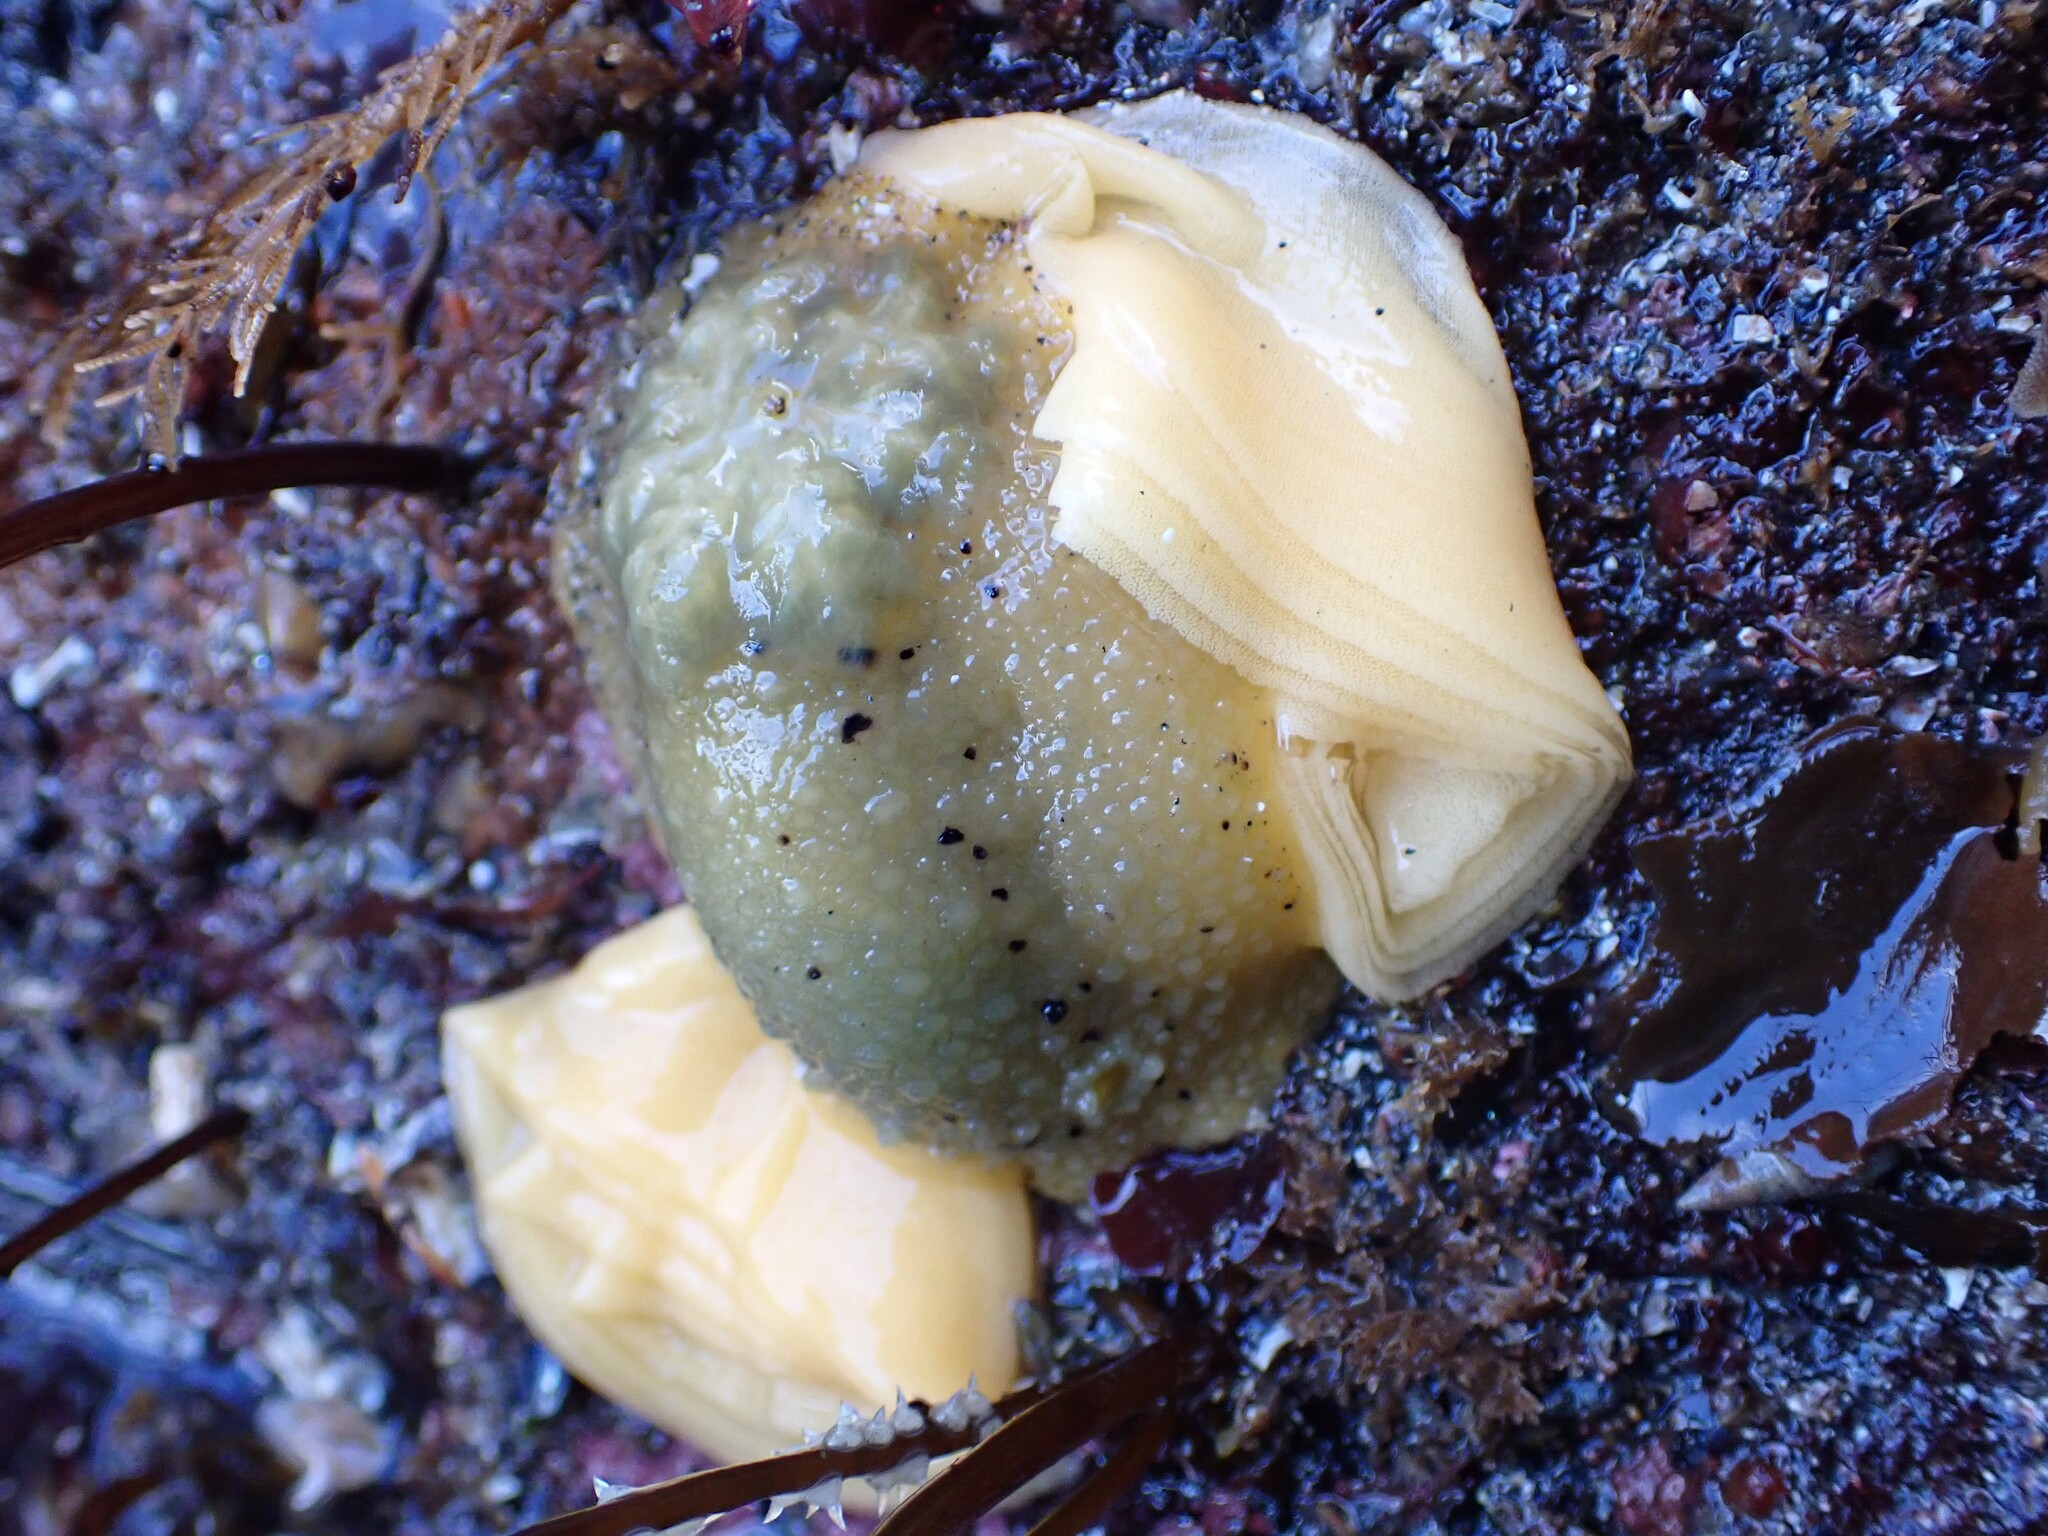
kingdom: Animalia
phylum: Mollusca
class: Gastropoda
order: Nudibranchia
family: Dorididae
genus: Doris
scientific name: Doris montereyensis
